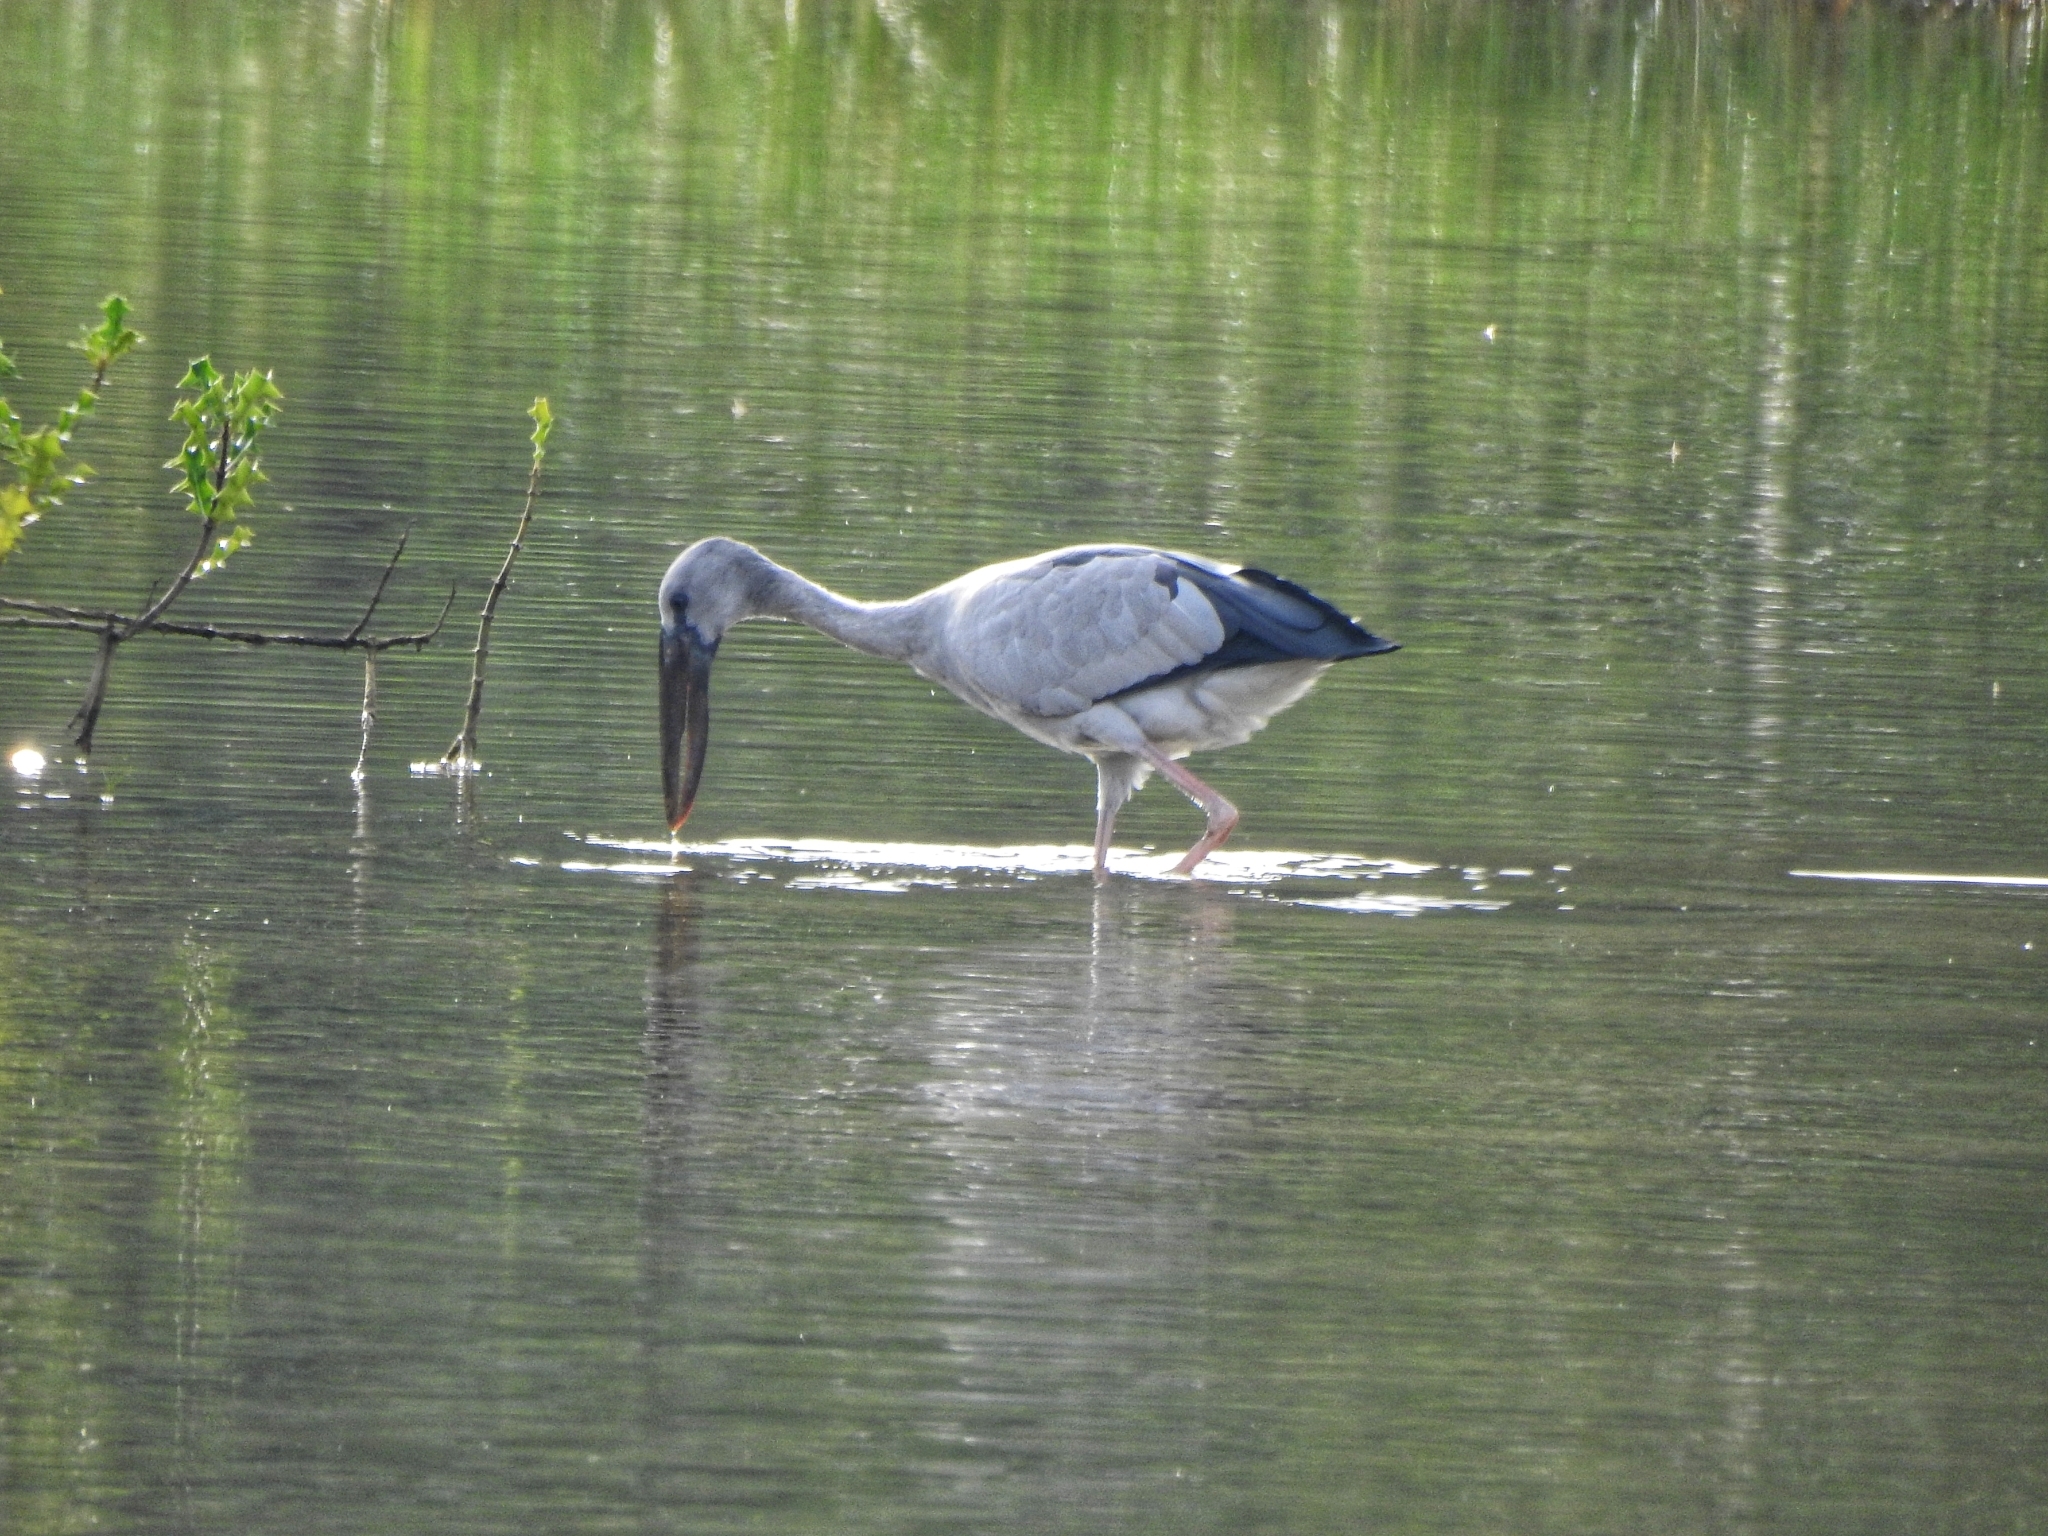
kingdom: Animalia
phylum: Chordata
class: Aves
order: Ciconiiformes
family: Ciconiidae
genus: Anastomus
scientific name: Anastomus oscitans
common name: Asian openbill
